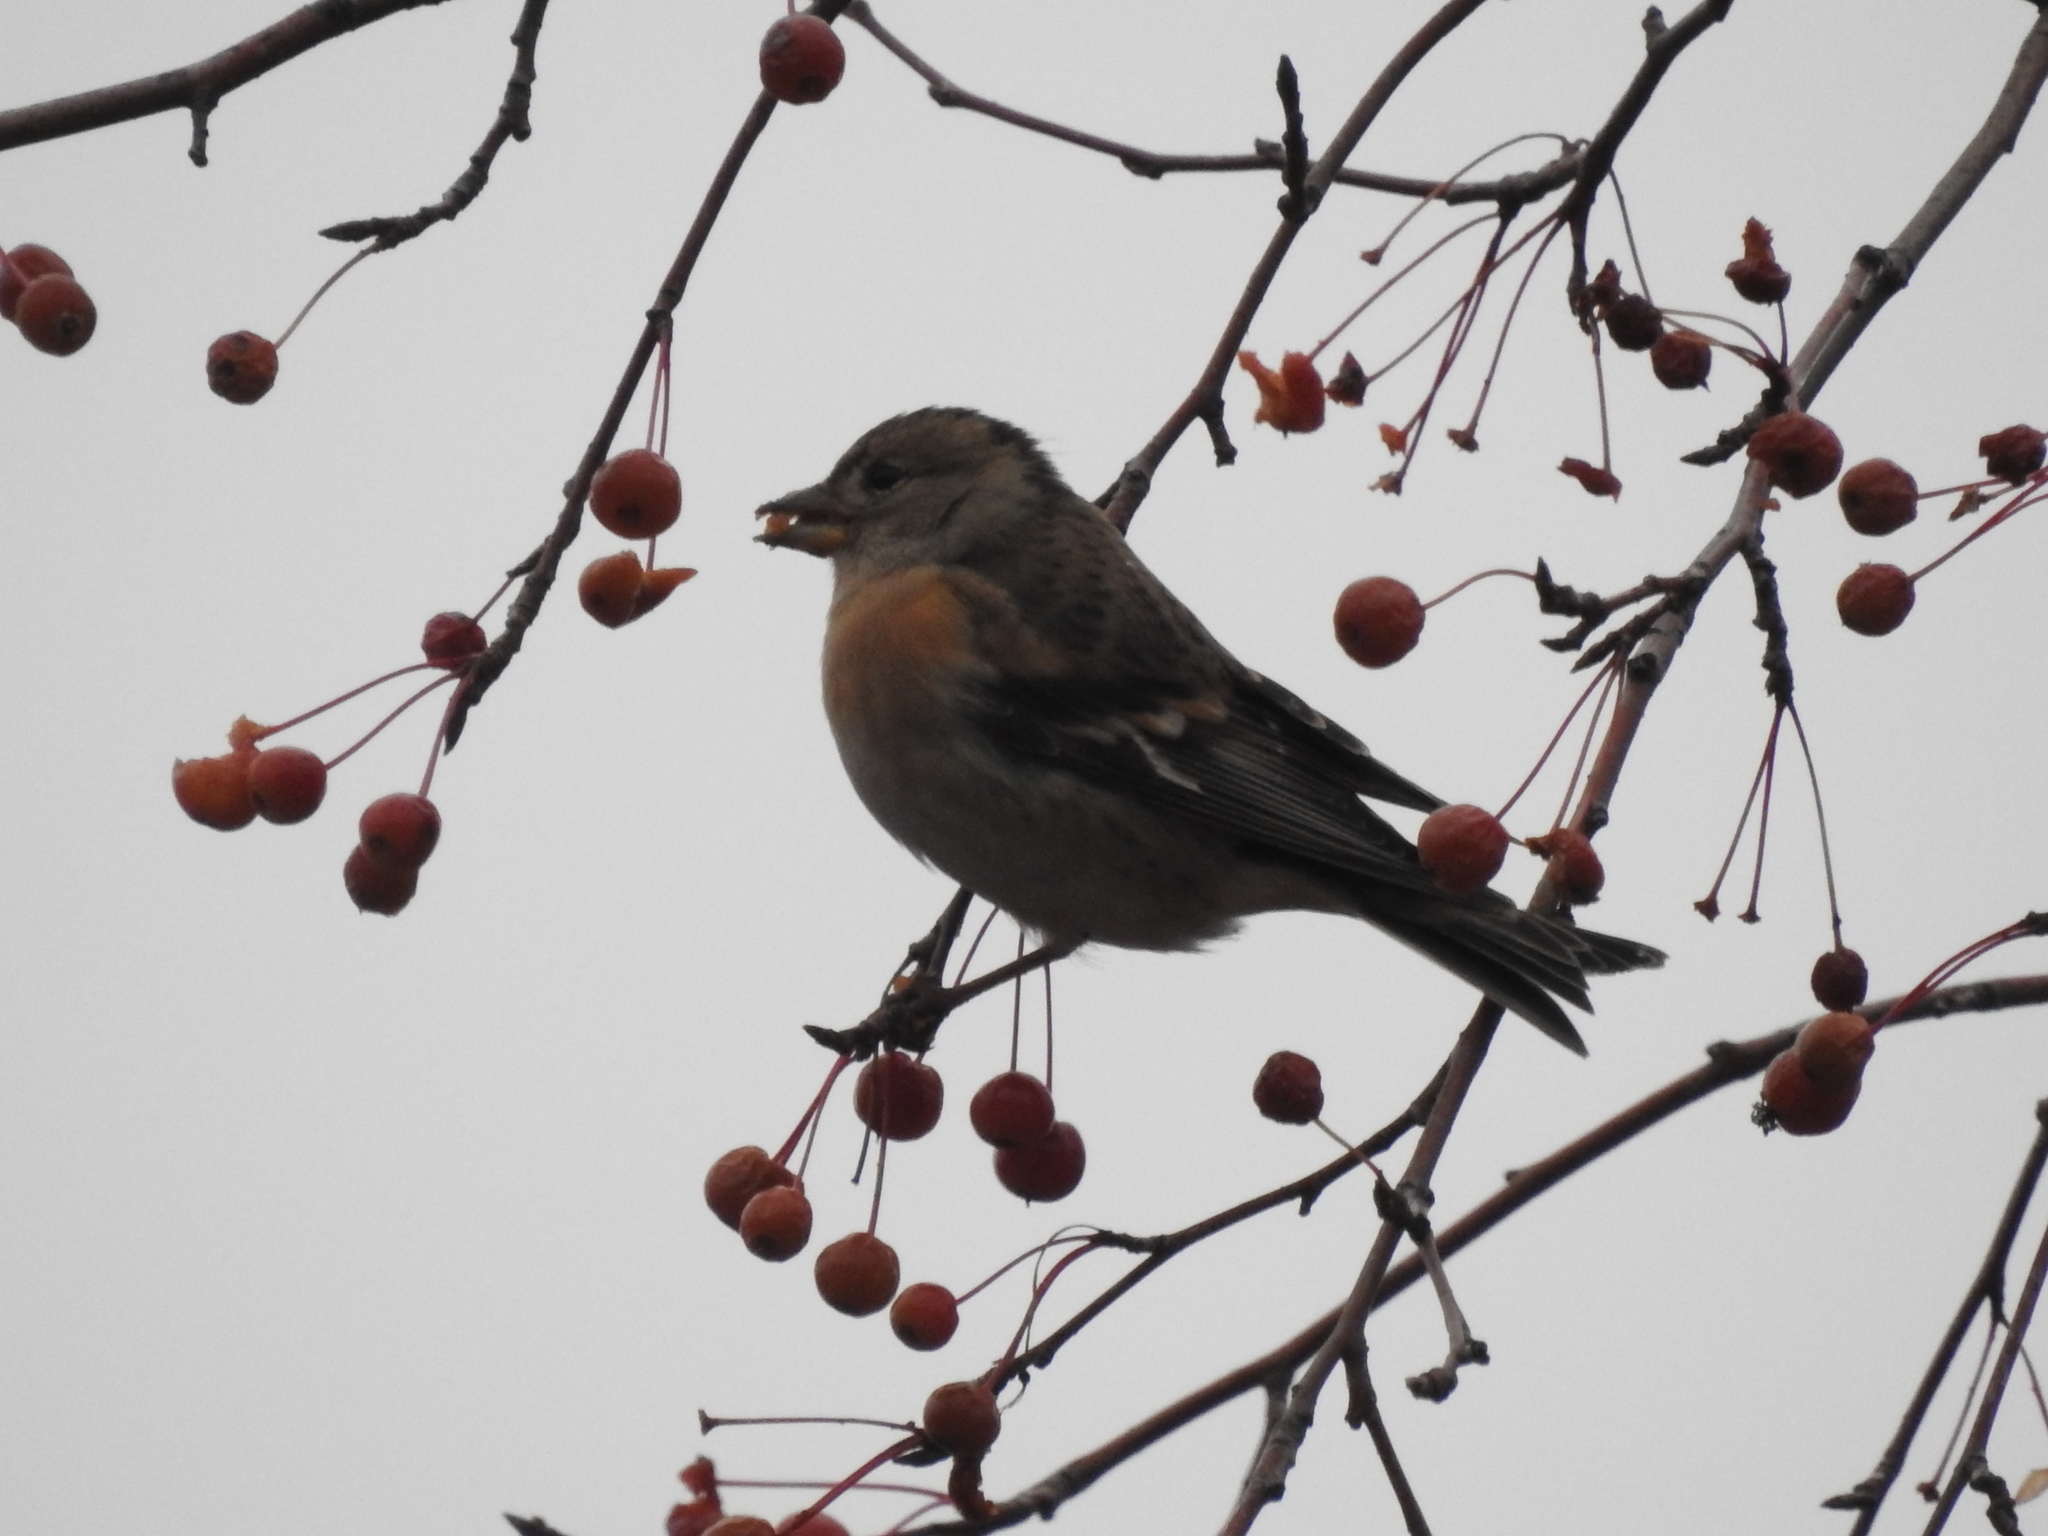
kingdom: Animalia
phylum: Chordata
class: Aves
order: Passeriformes
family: Fringillidae
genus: Fringilla
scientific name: Fringilla montifringilla
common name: Brambling
